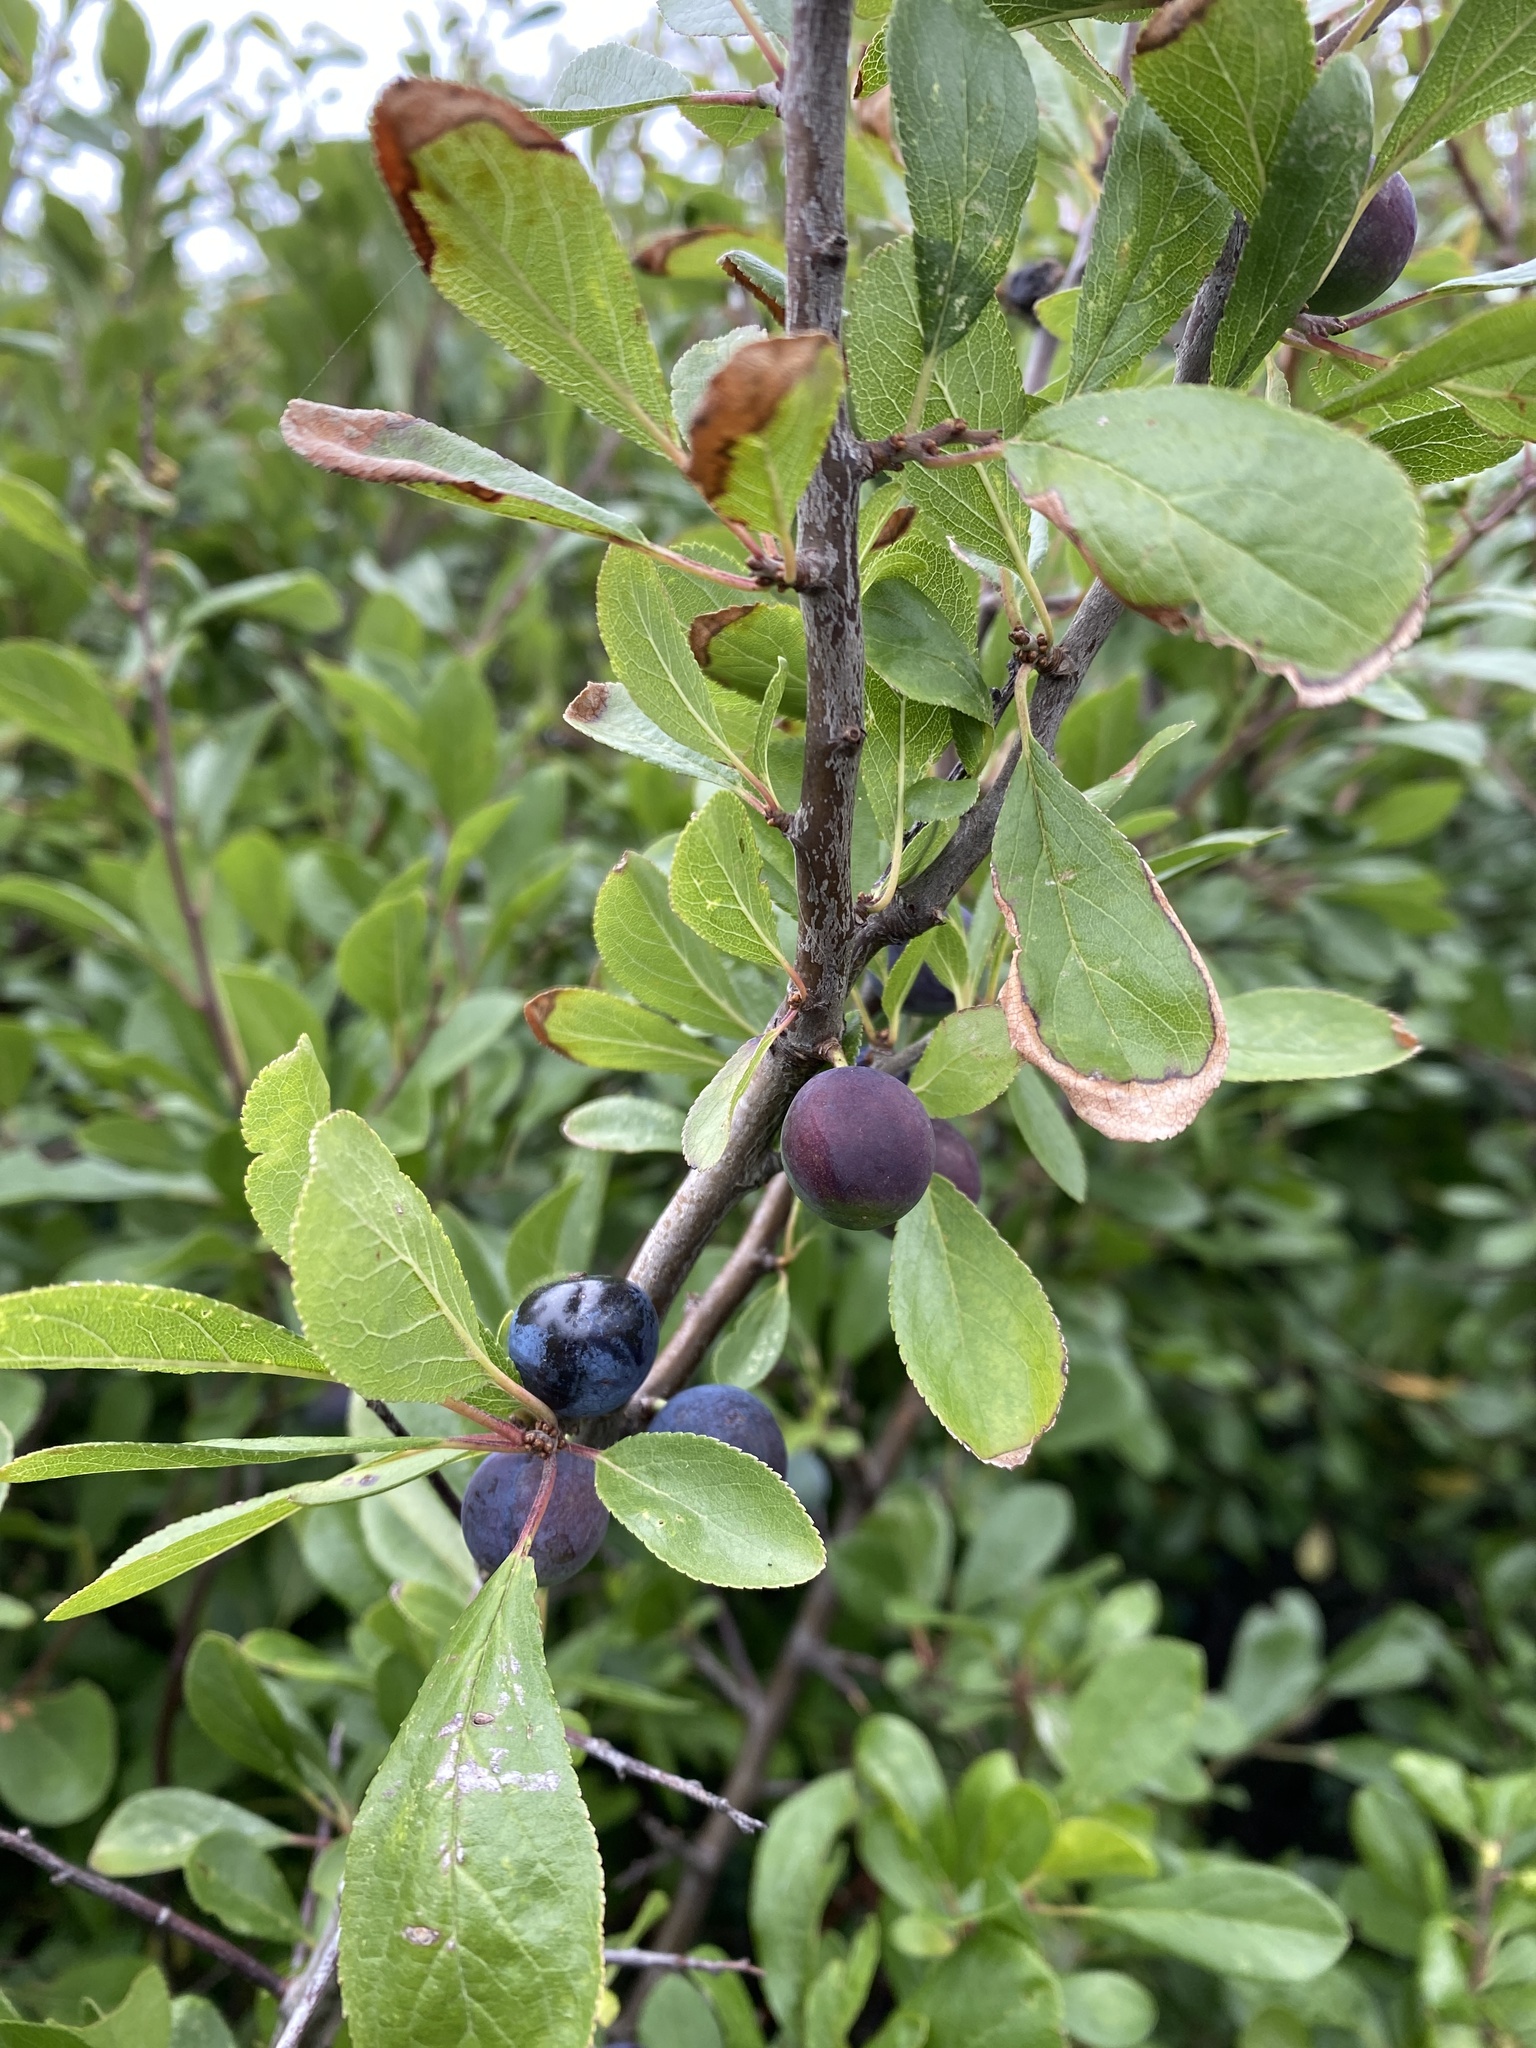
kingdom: Plantae
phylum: Tracheophyta
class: Magnoliopsida
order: Rosales
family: Rosaceae
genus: Prunus
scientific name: Prunus spinosa
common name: Blackthorn
